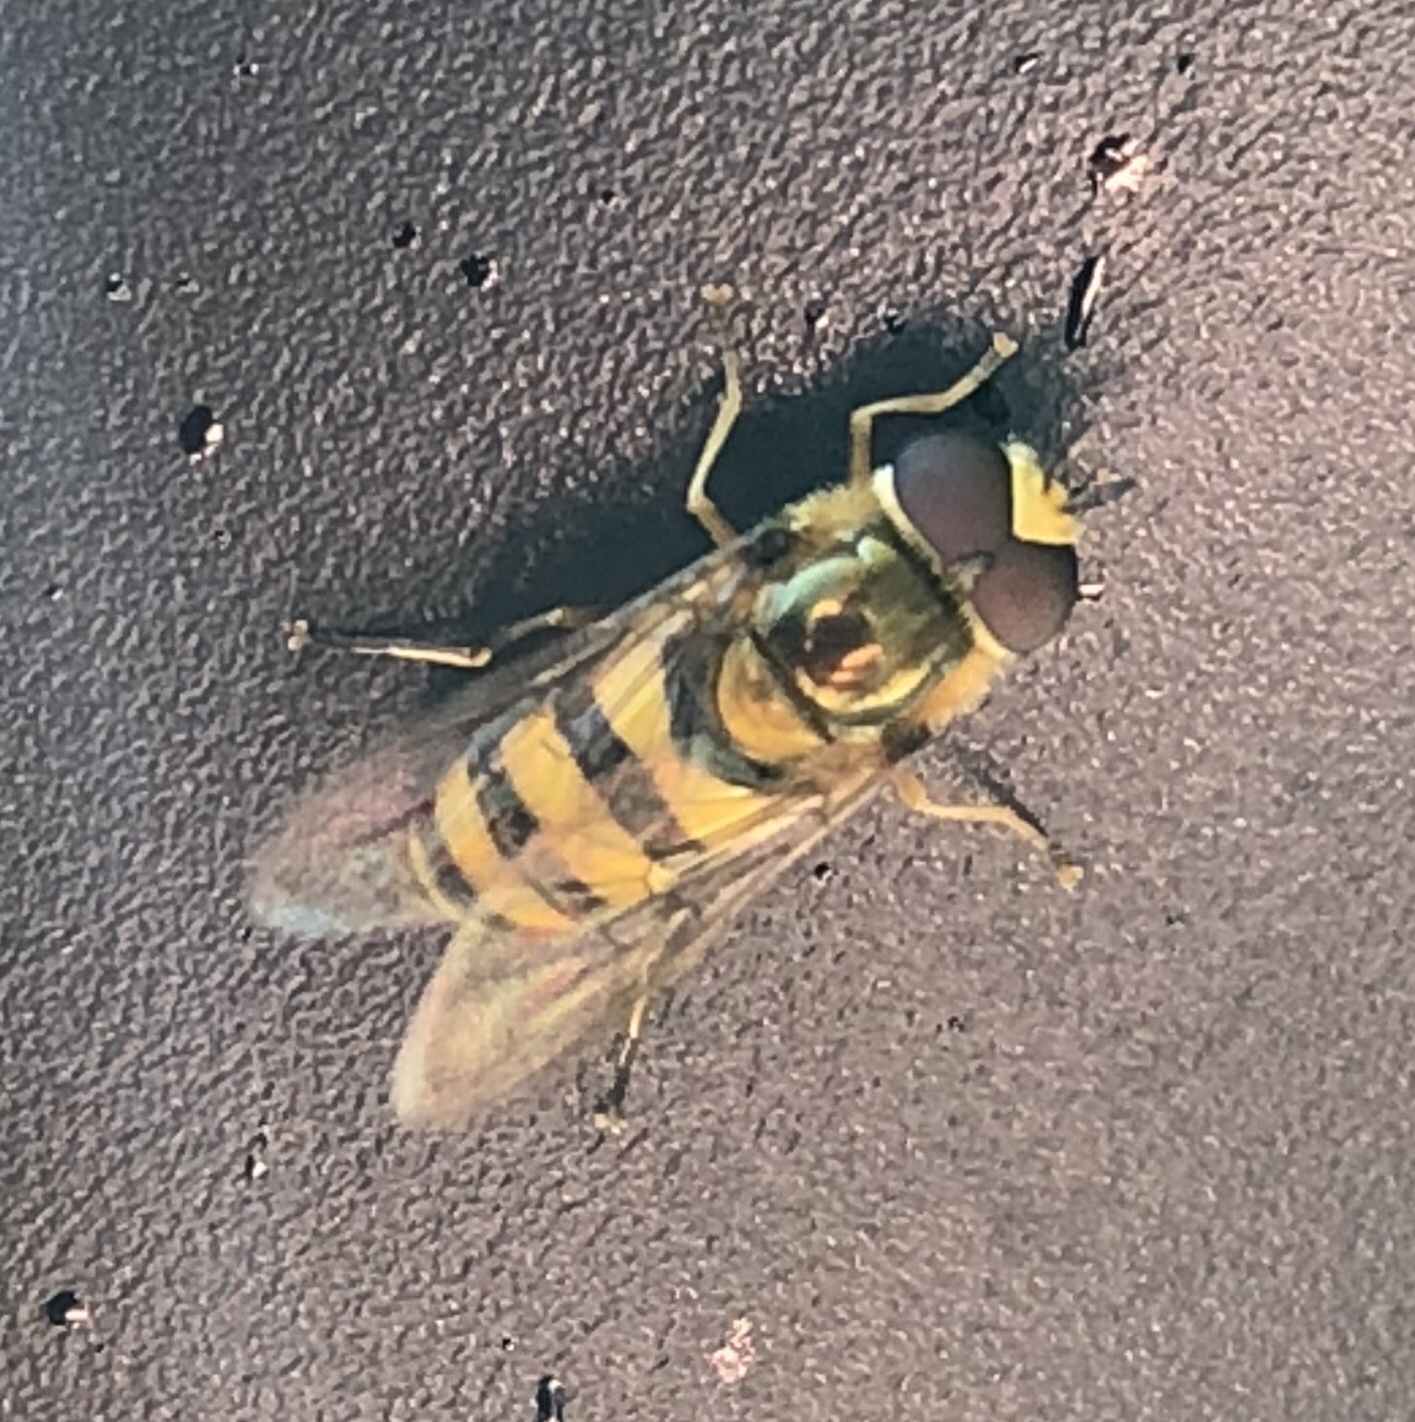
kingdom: Animalia
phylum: Arthropoda
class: Insecta
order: Diptera
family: Syrphidae
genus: Eupeodes
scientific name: Eupeodes
